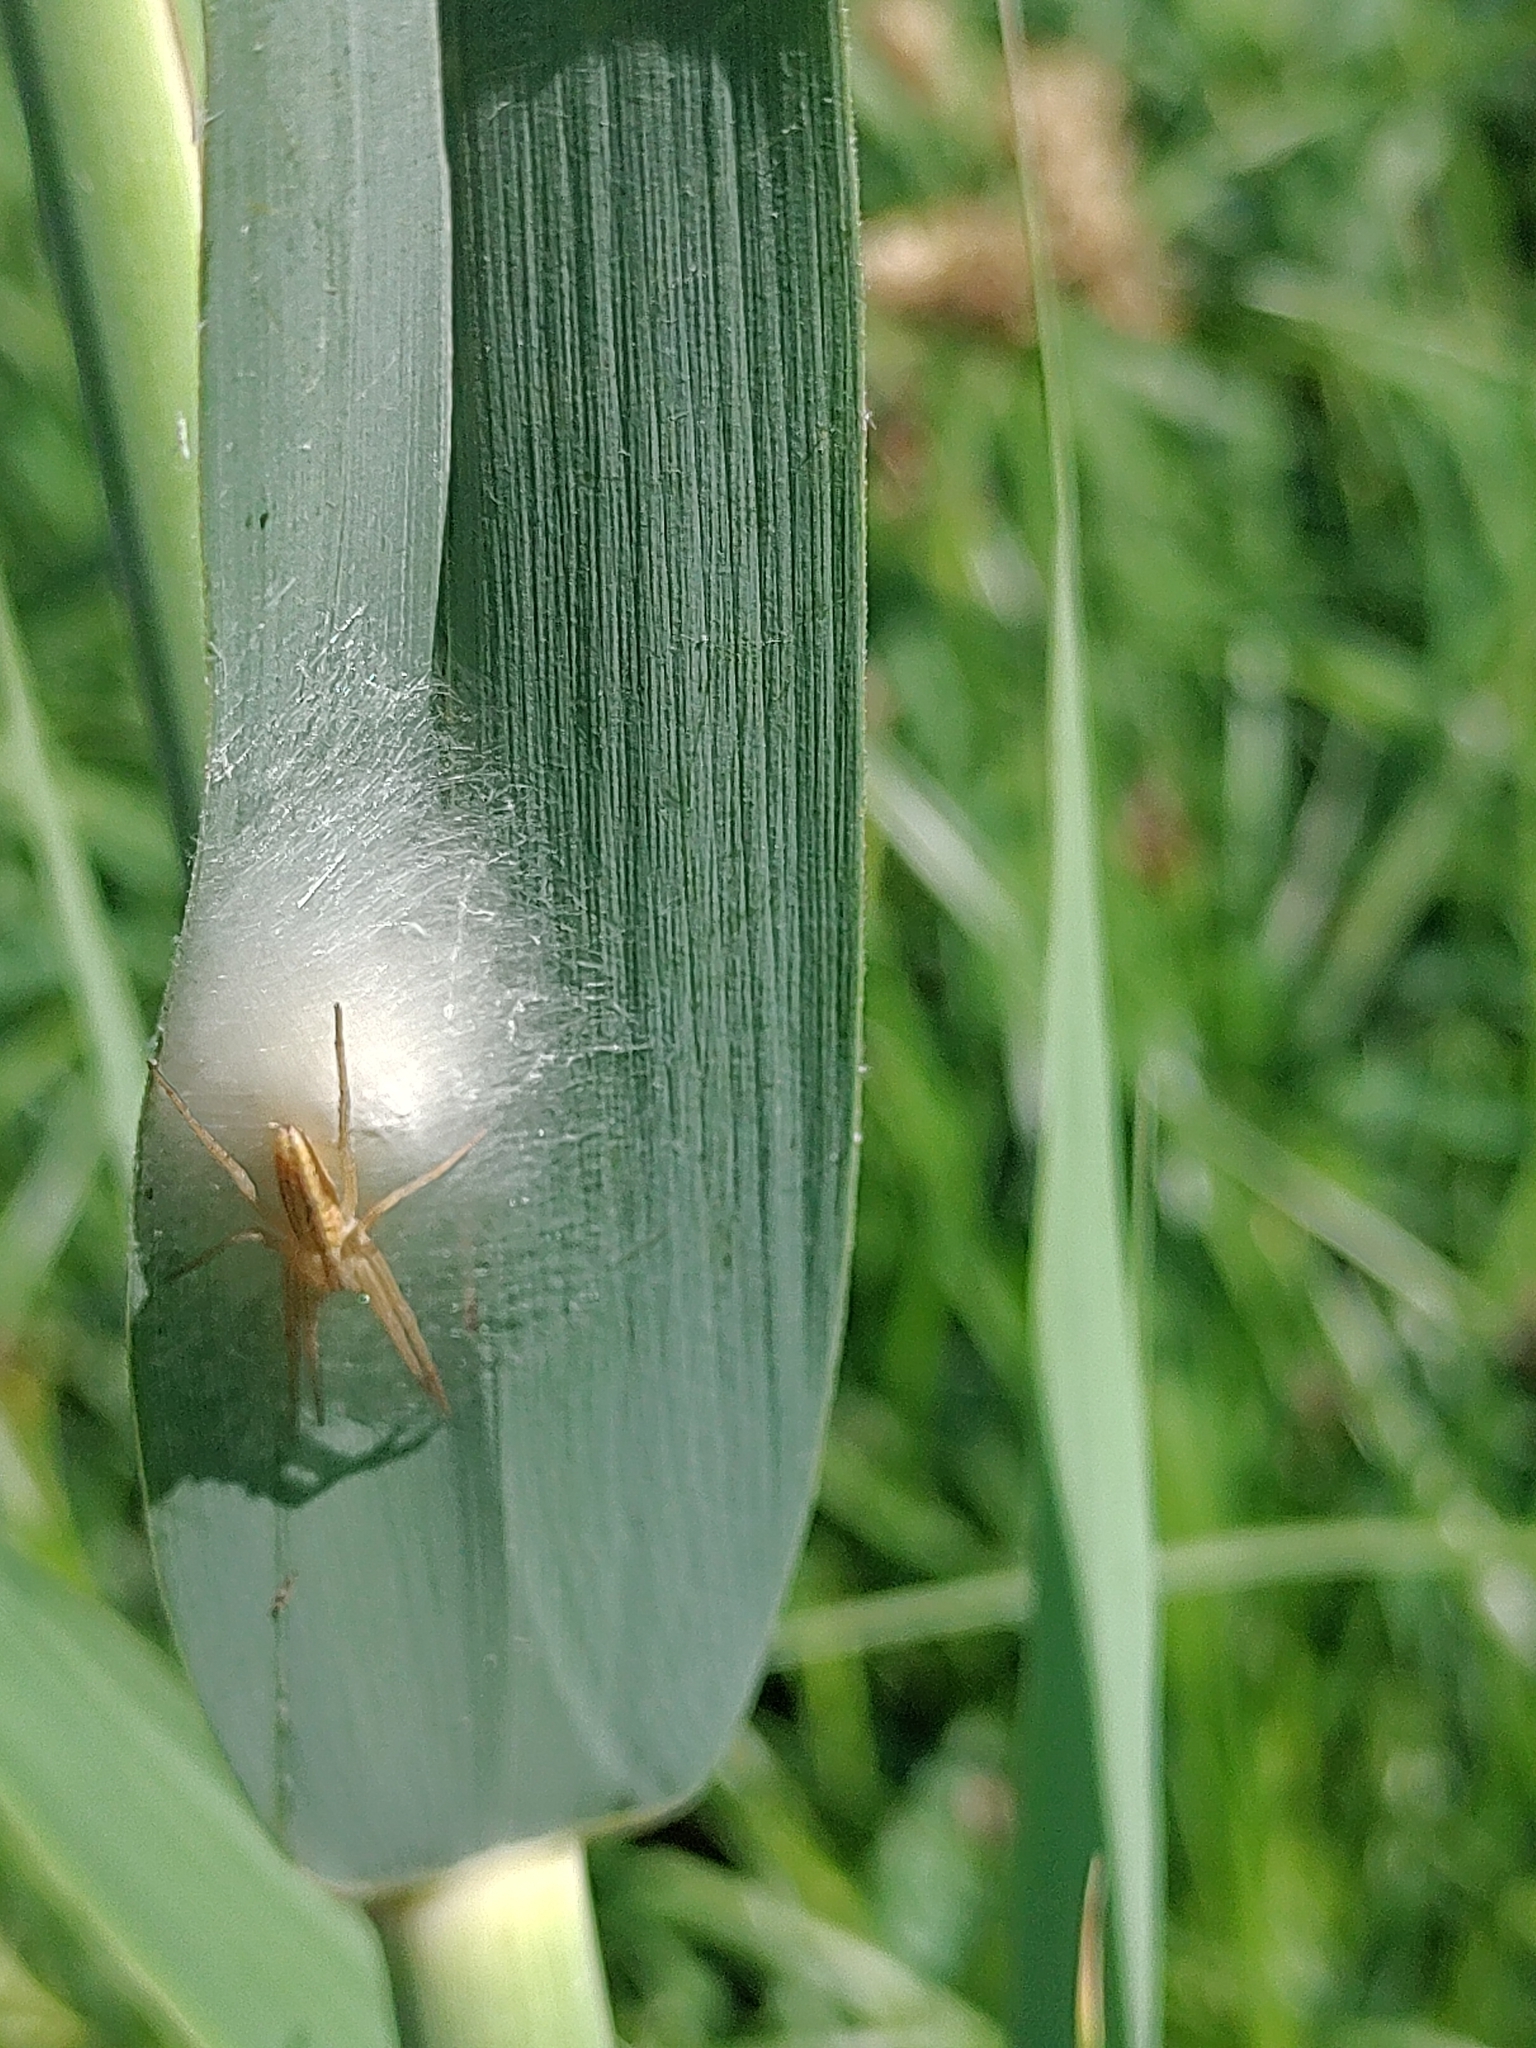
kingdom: Animalia
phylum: Arthropoda
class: Arachnida
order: Araneae
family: Philodromidae
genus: Tibellus
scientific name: Tibellus oblongus
